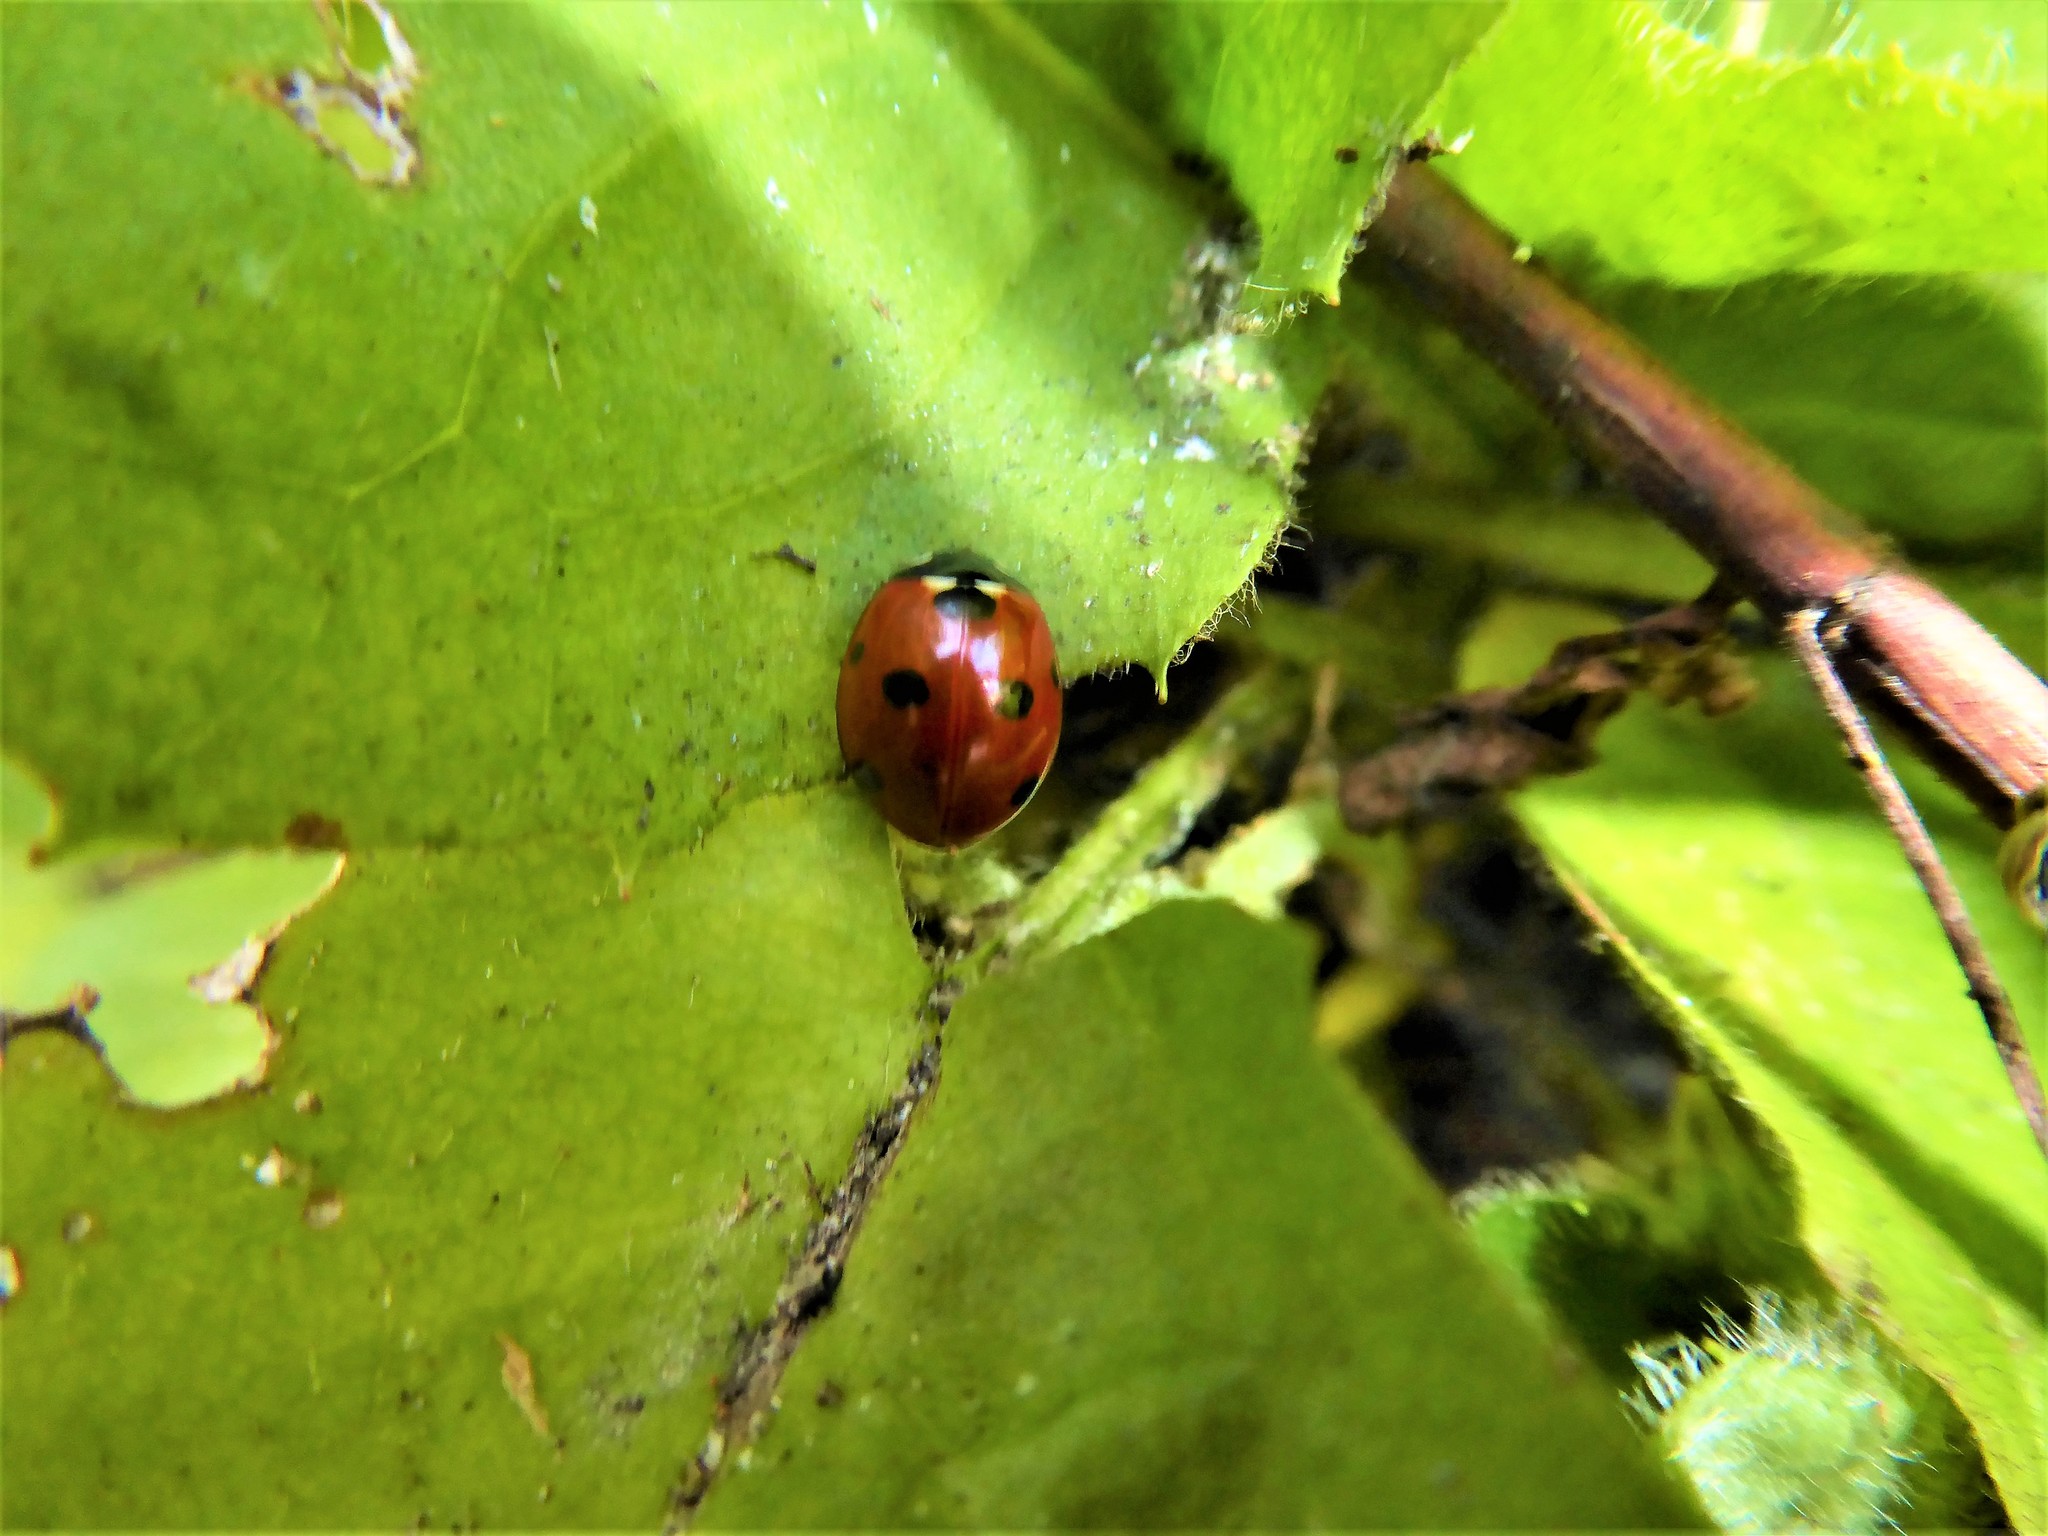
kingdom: Animalia
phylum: Arthropoda
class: Insecta
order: Coleoptera
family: Coccinellidae
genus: Coccinella
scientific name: Coccinella septempunctata
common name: Sevenspotted lady beetle
